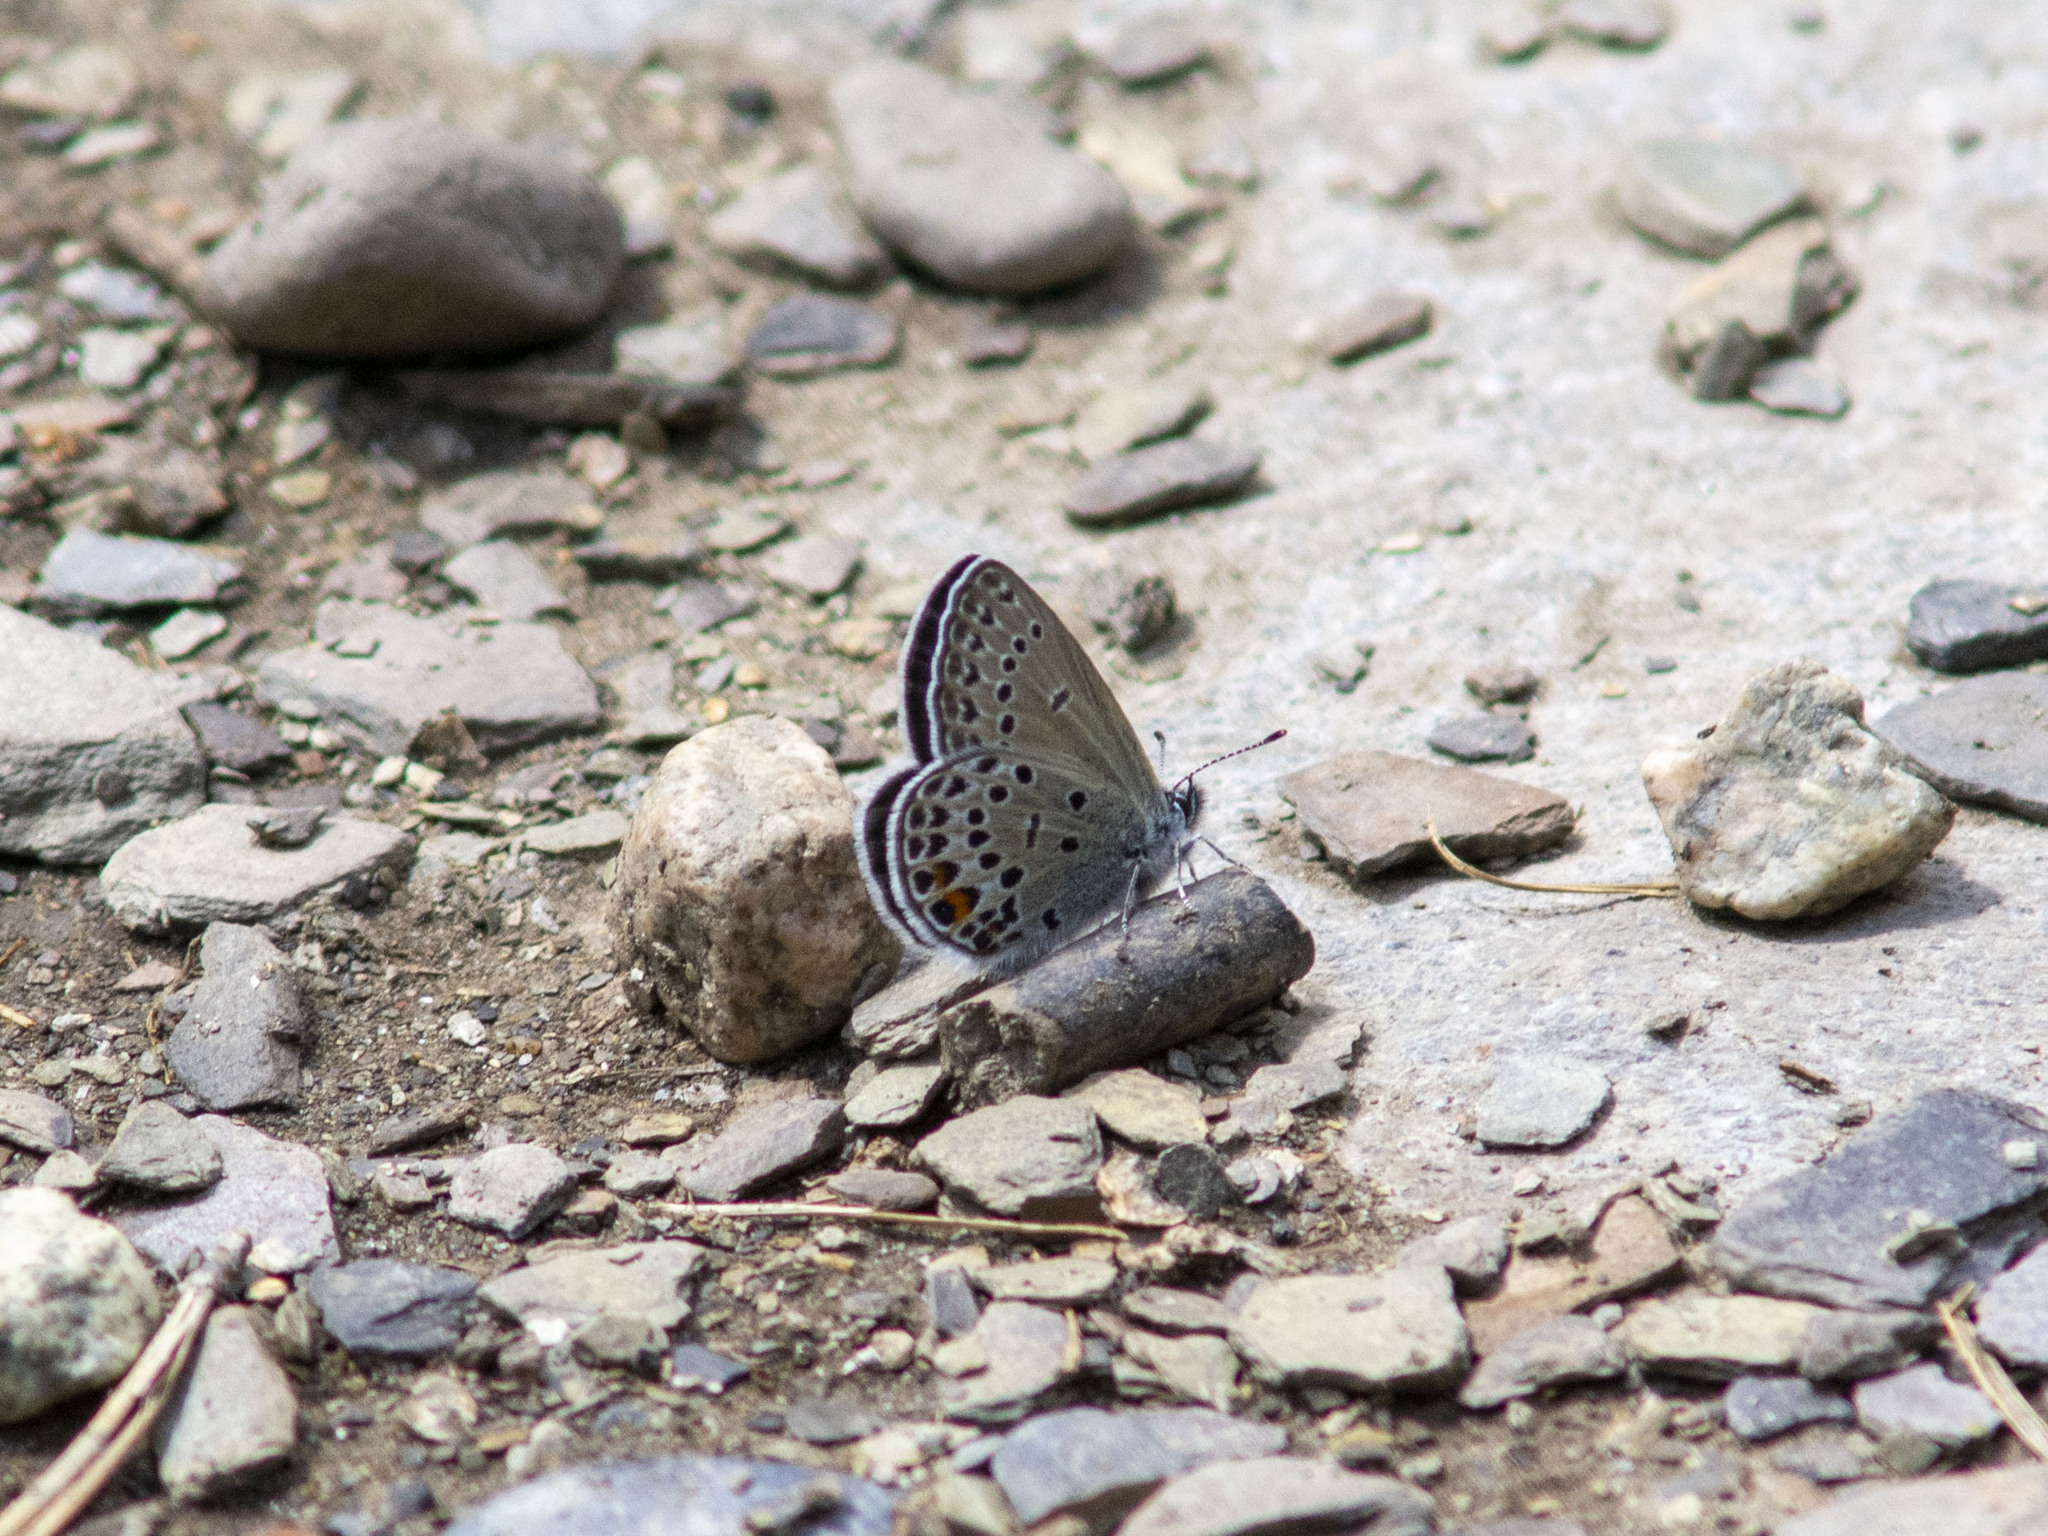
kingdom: Animalia
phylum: Arthropoda
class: Insecta
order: Lepidoptera
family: Lycaenidae
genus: Vacciniina
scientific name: Vacciniina optilete
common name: Cranberry blue
